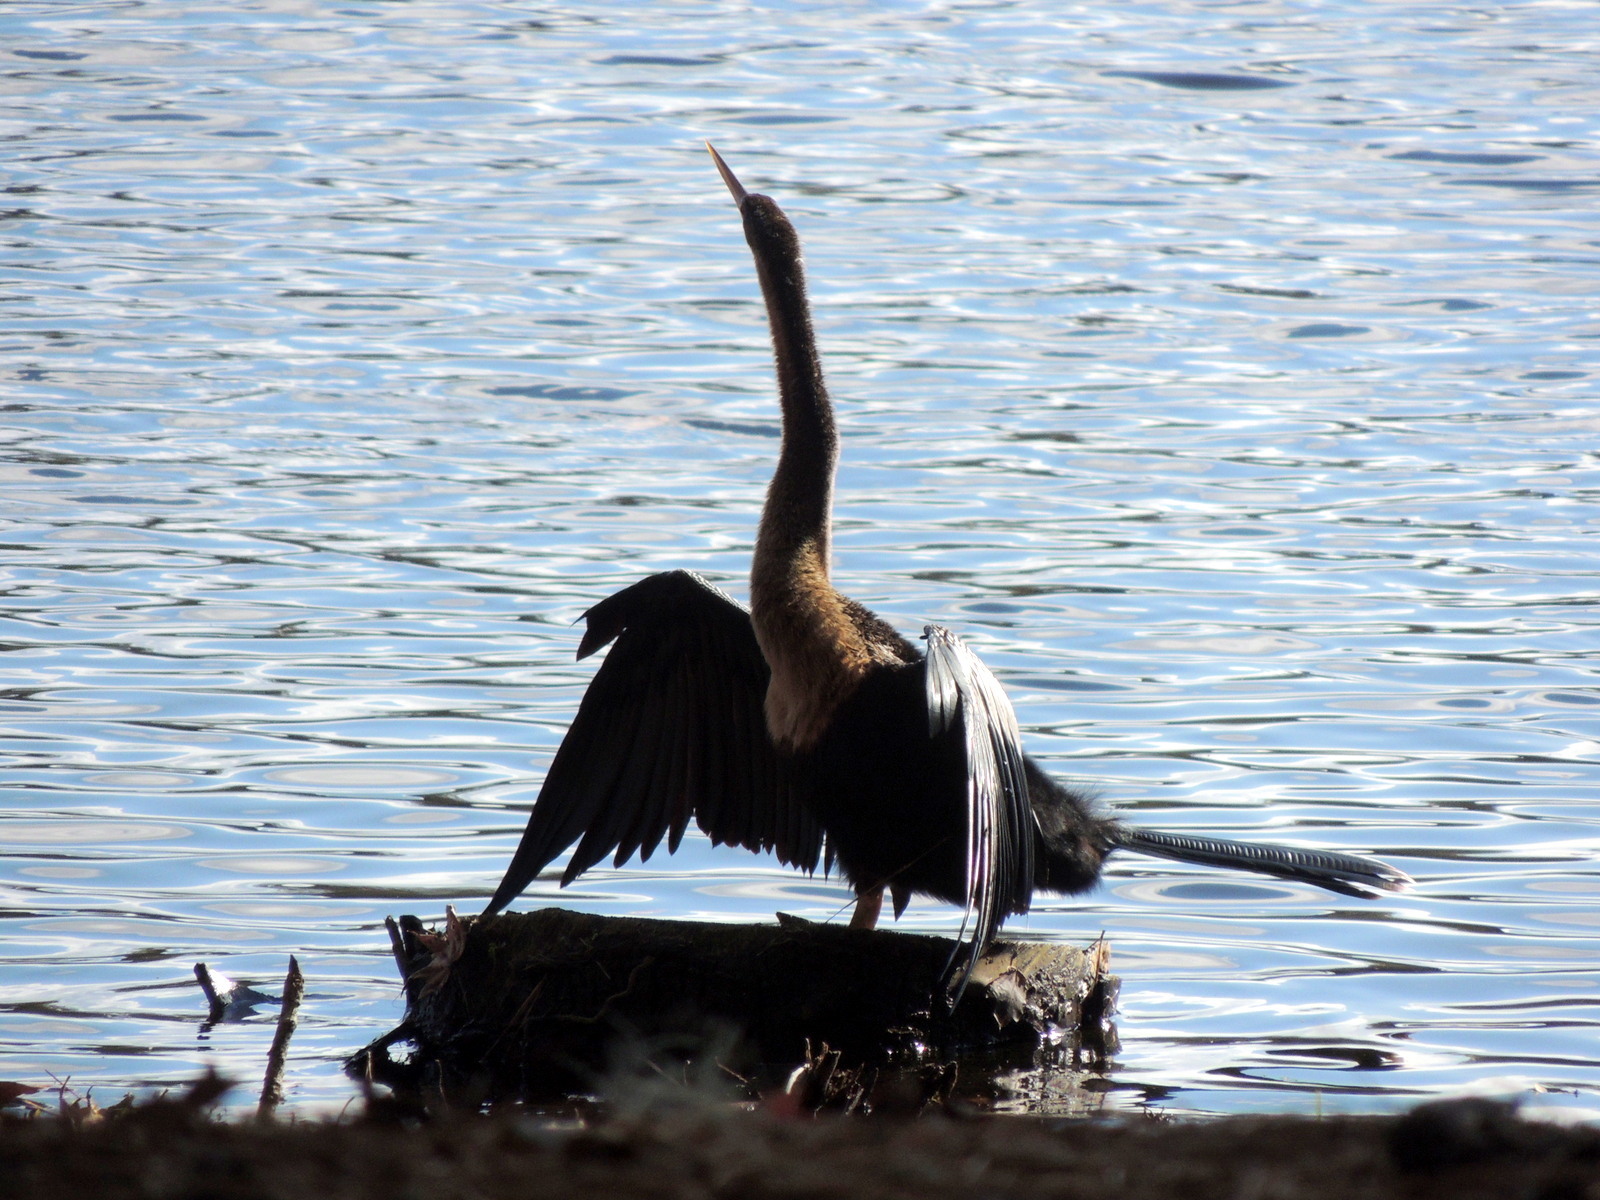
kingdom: Animalia
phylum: Chordata
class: Aves
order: Suliformes
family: Anhingidae
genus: Anhinga
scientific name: Anhinga anhinga
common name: Anhinga
